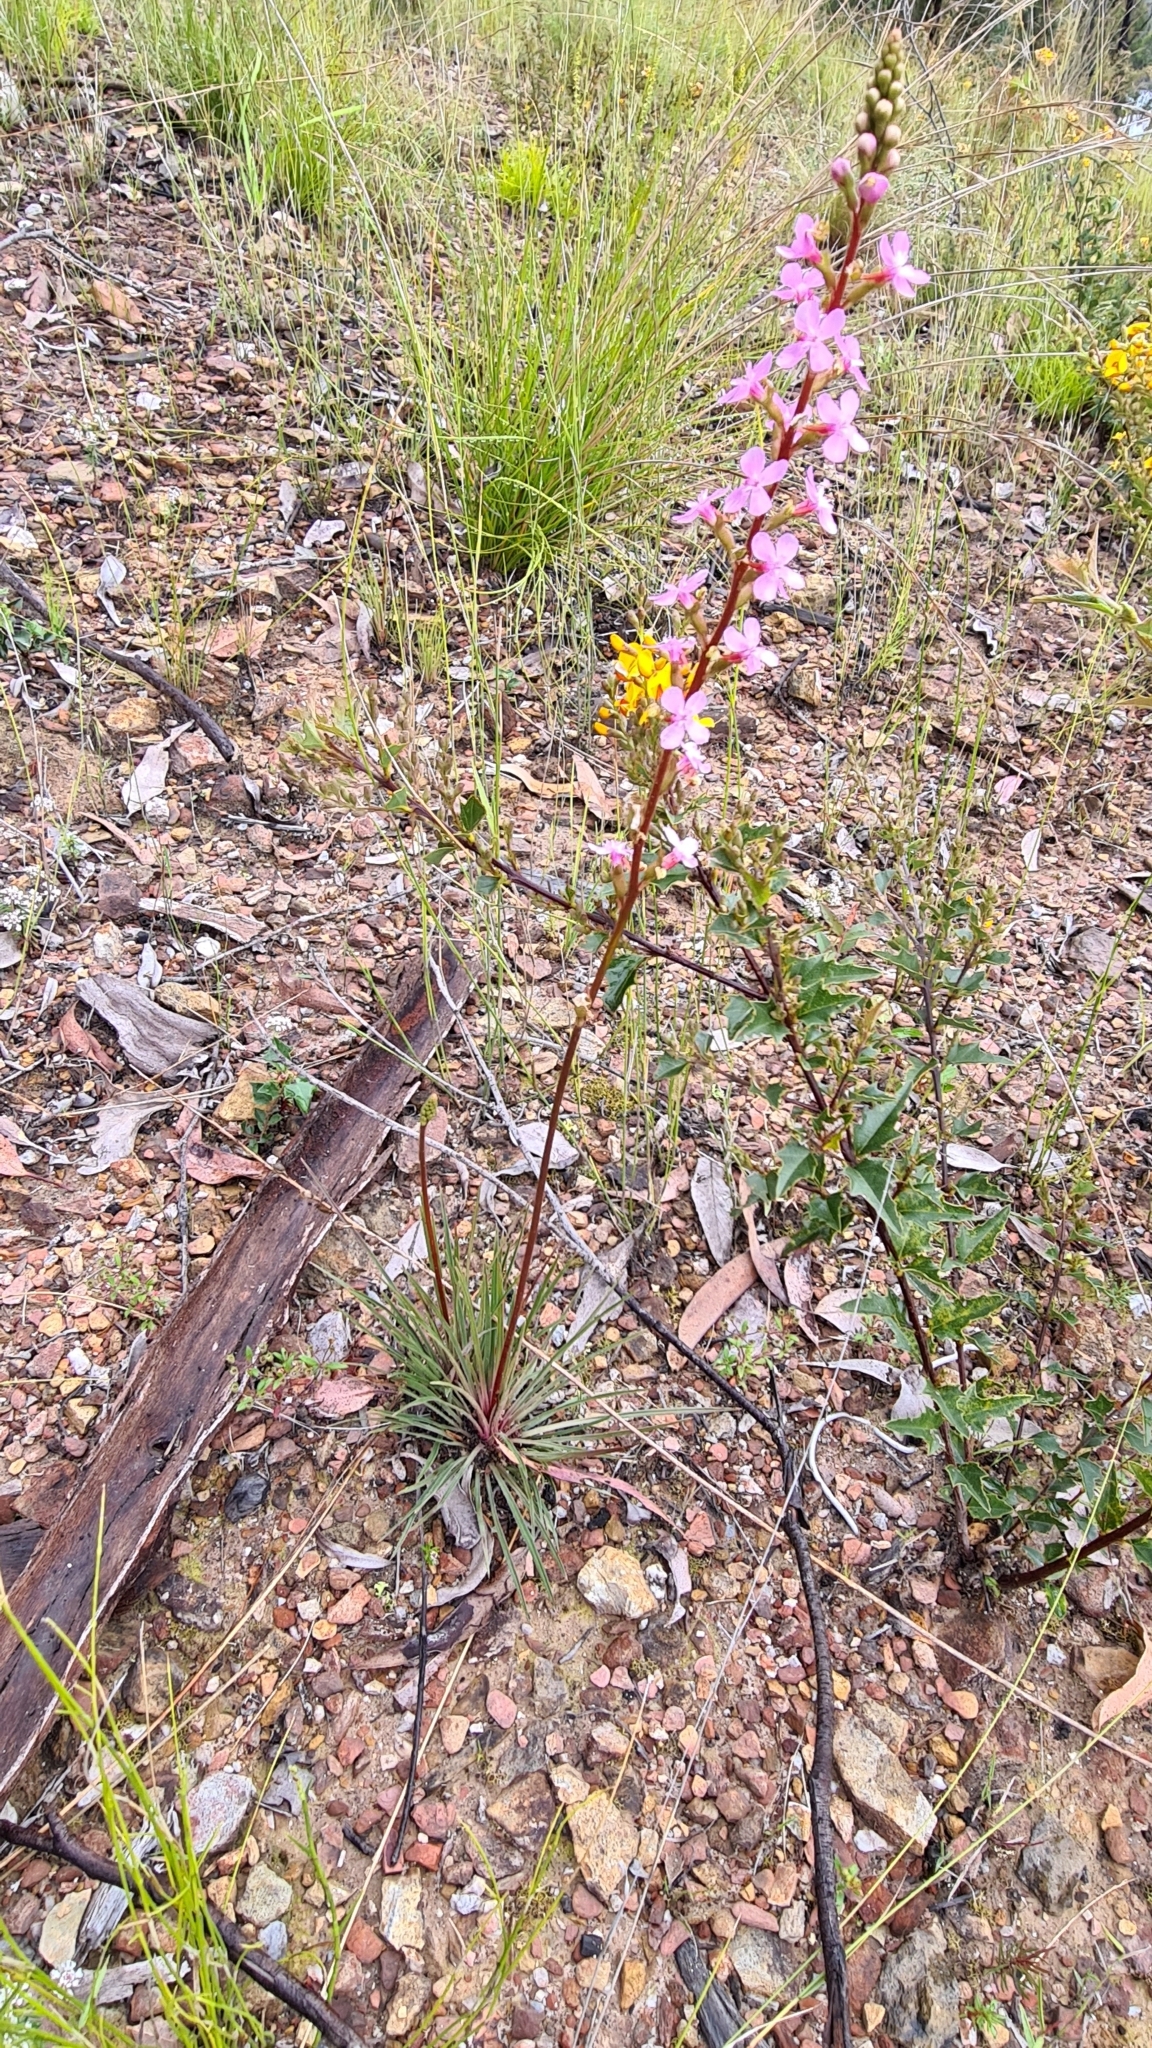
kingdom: Plantae
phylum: Tracheophyta
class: Magnoliopsida
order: Asterales
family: Stylidiaceae
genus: Stylidium
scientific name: Stylidium graminifolium
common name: Grass triggerplant
